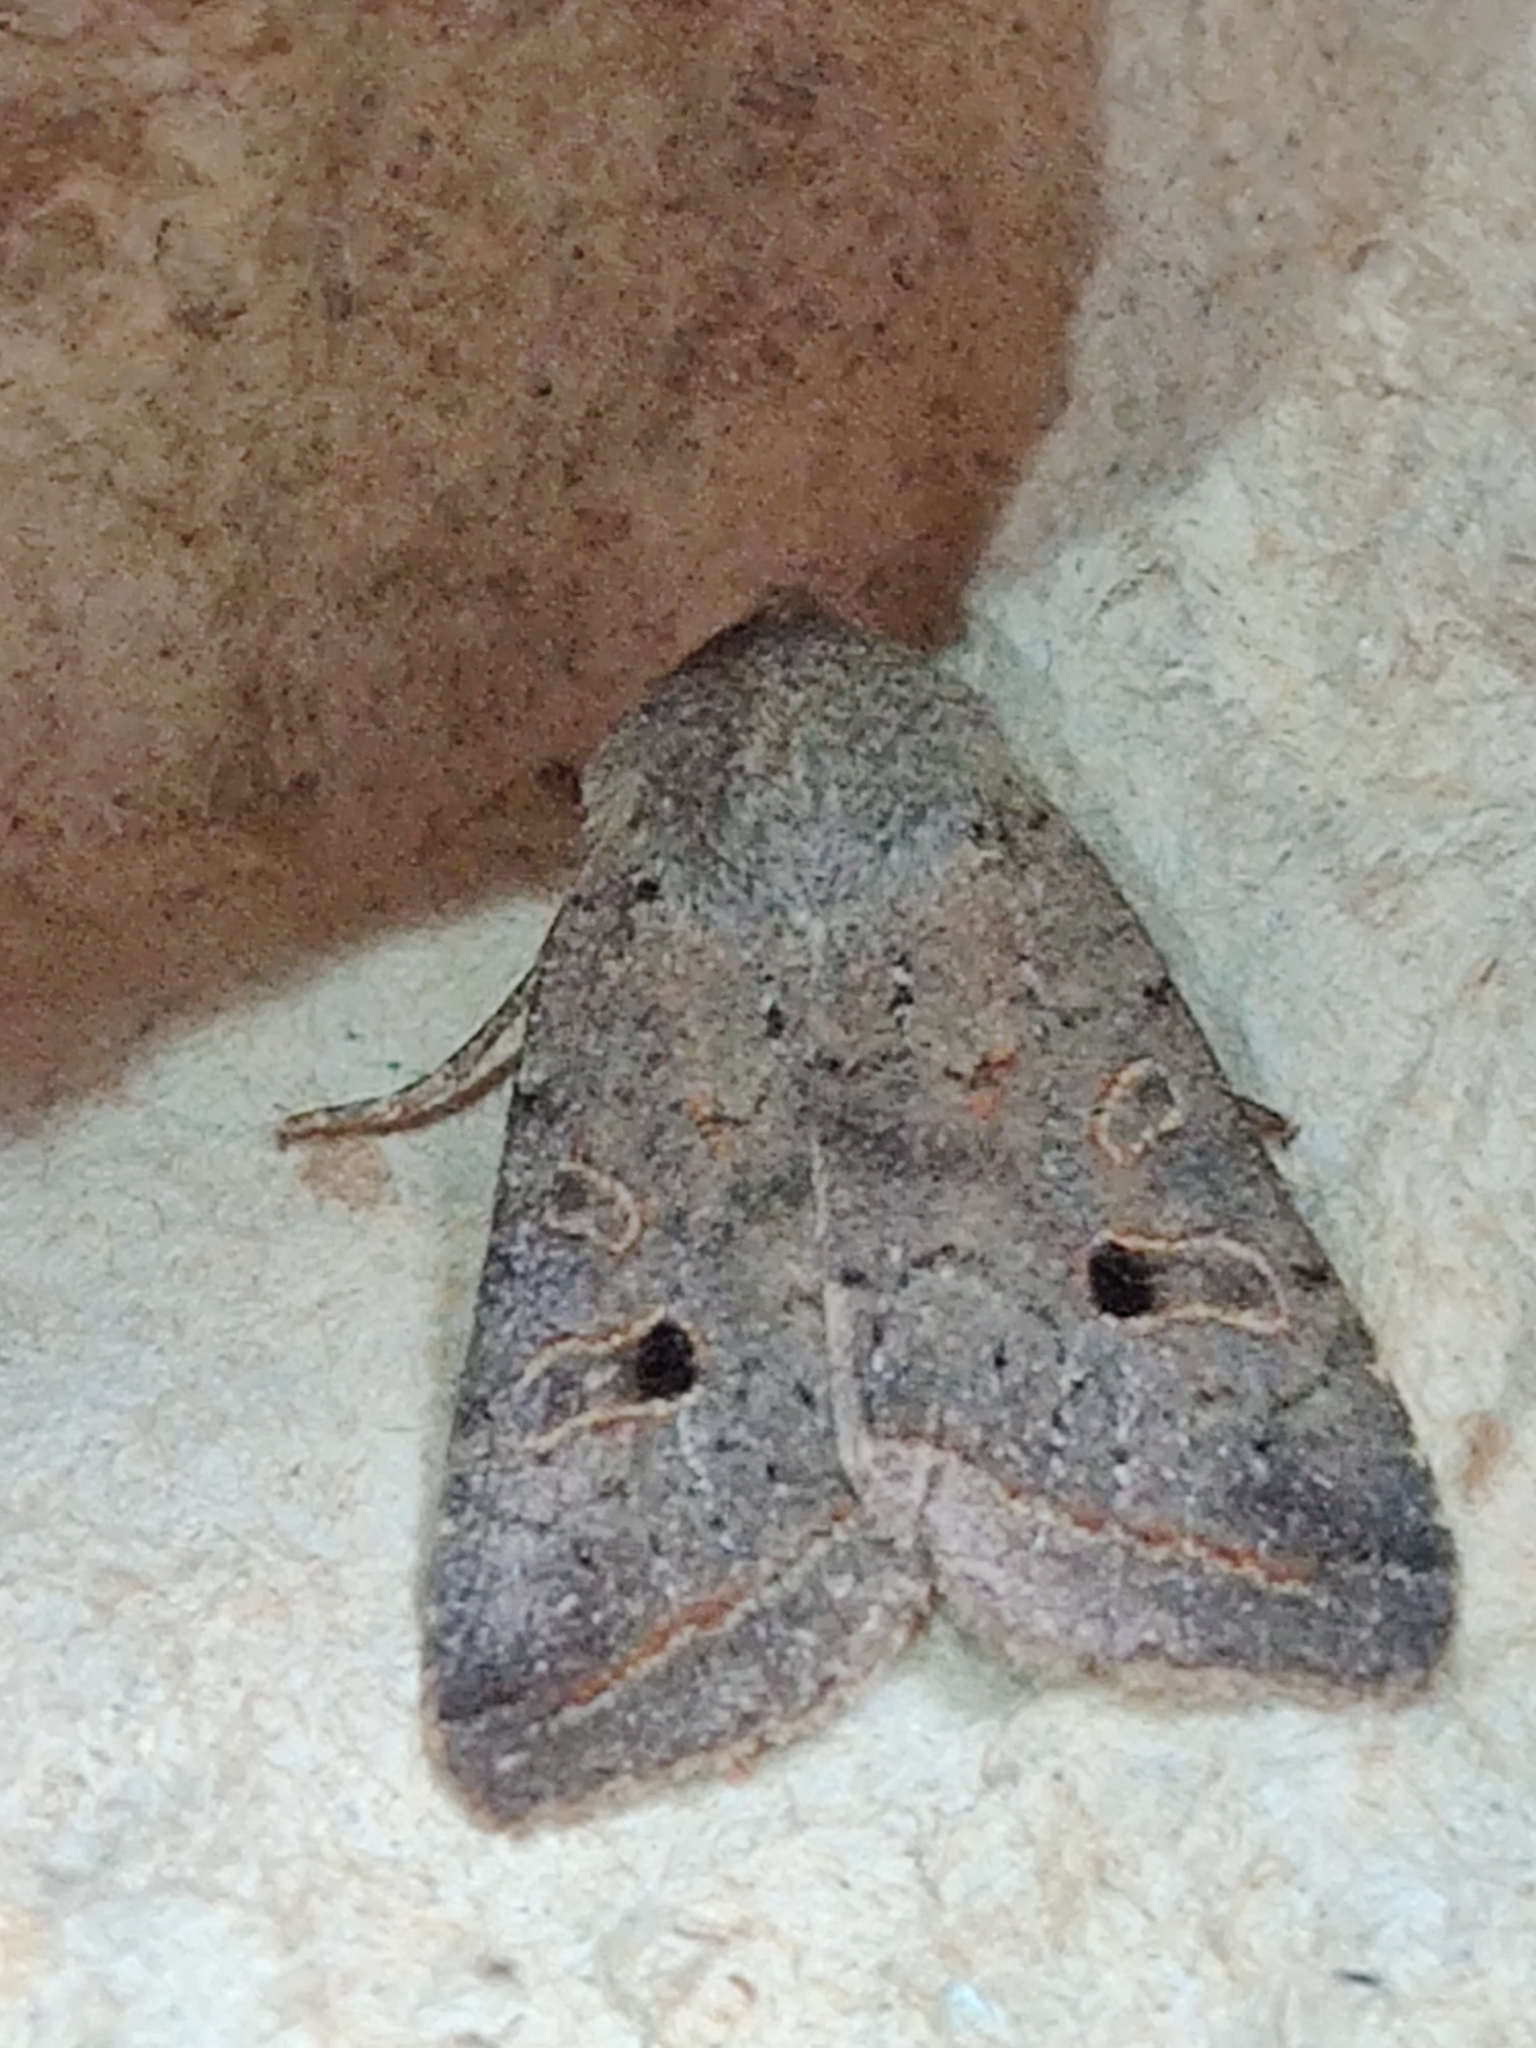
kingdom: Animalia
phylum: Arthropoda
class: Insecta
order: Lepidoptera
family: Noctuidae
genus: Agrochola
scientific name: Agrochola lota
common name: Red-line quaker
